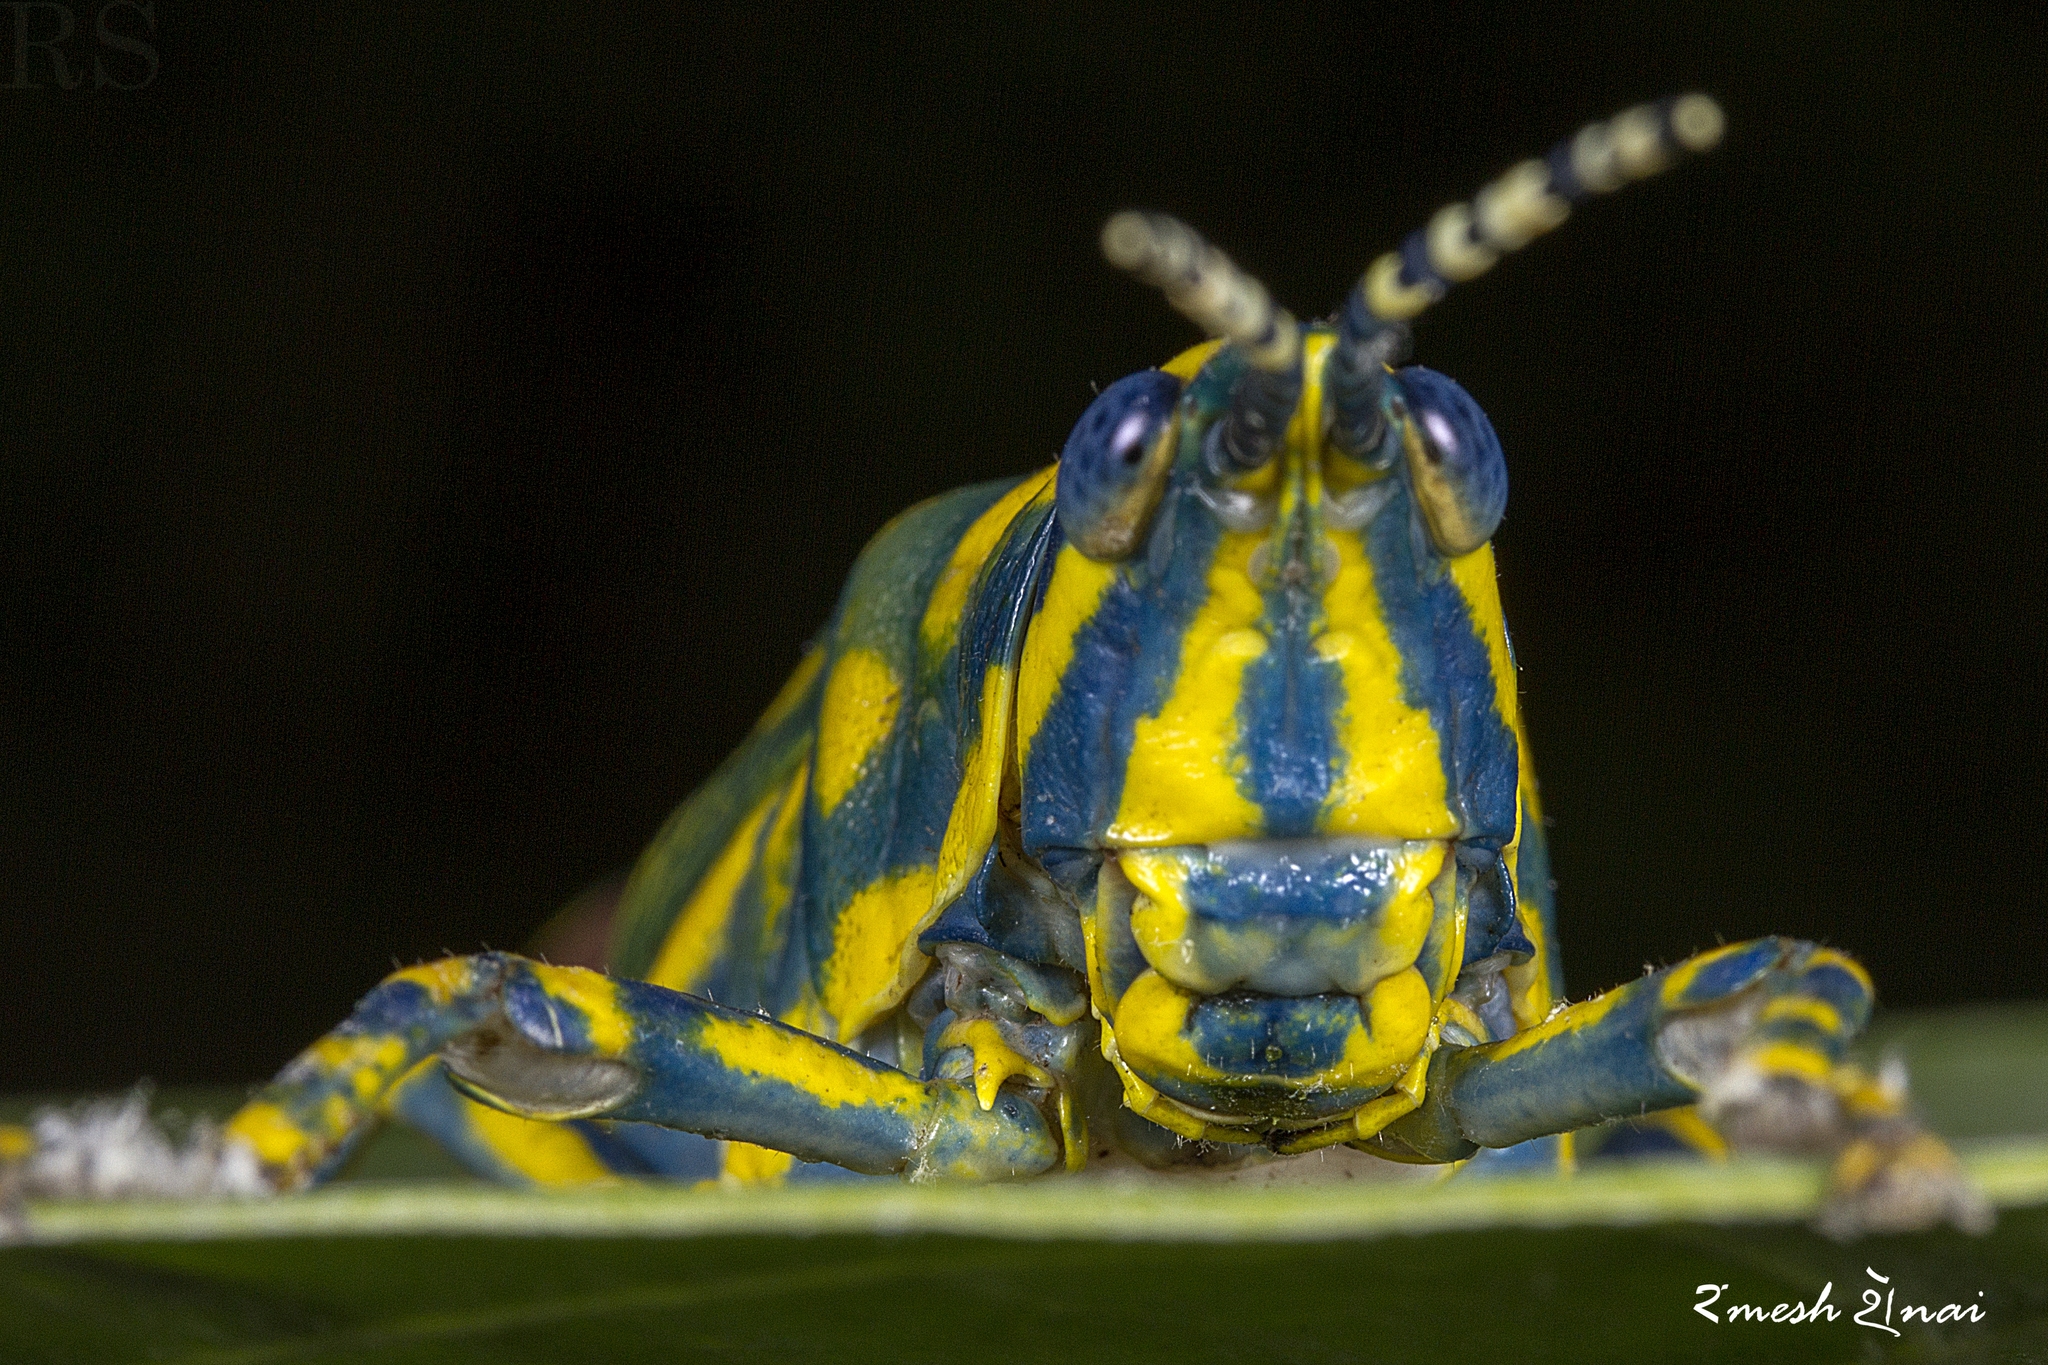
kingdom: Animalia
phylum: Arthropoda
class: Insecta
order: Orthoptera
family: Pyrgomorphidae
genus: Poekilocerus
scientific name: Poekilocerus pictus
